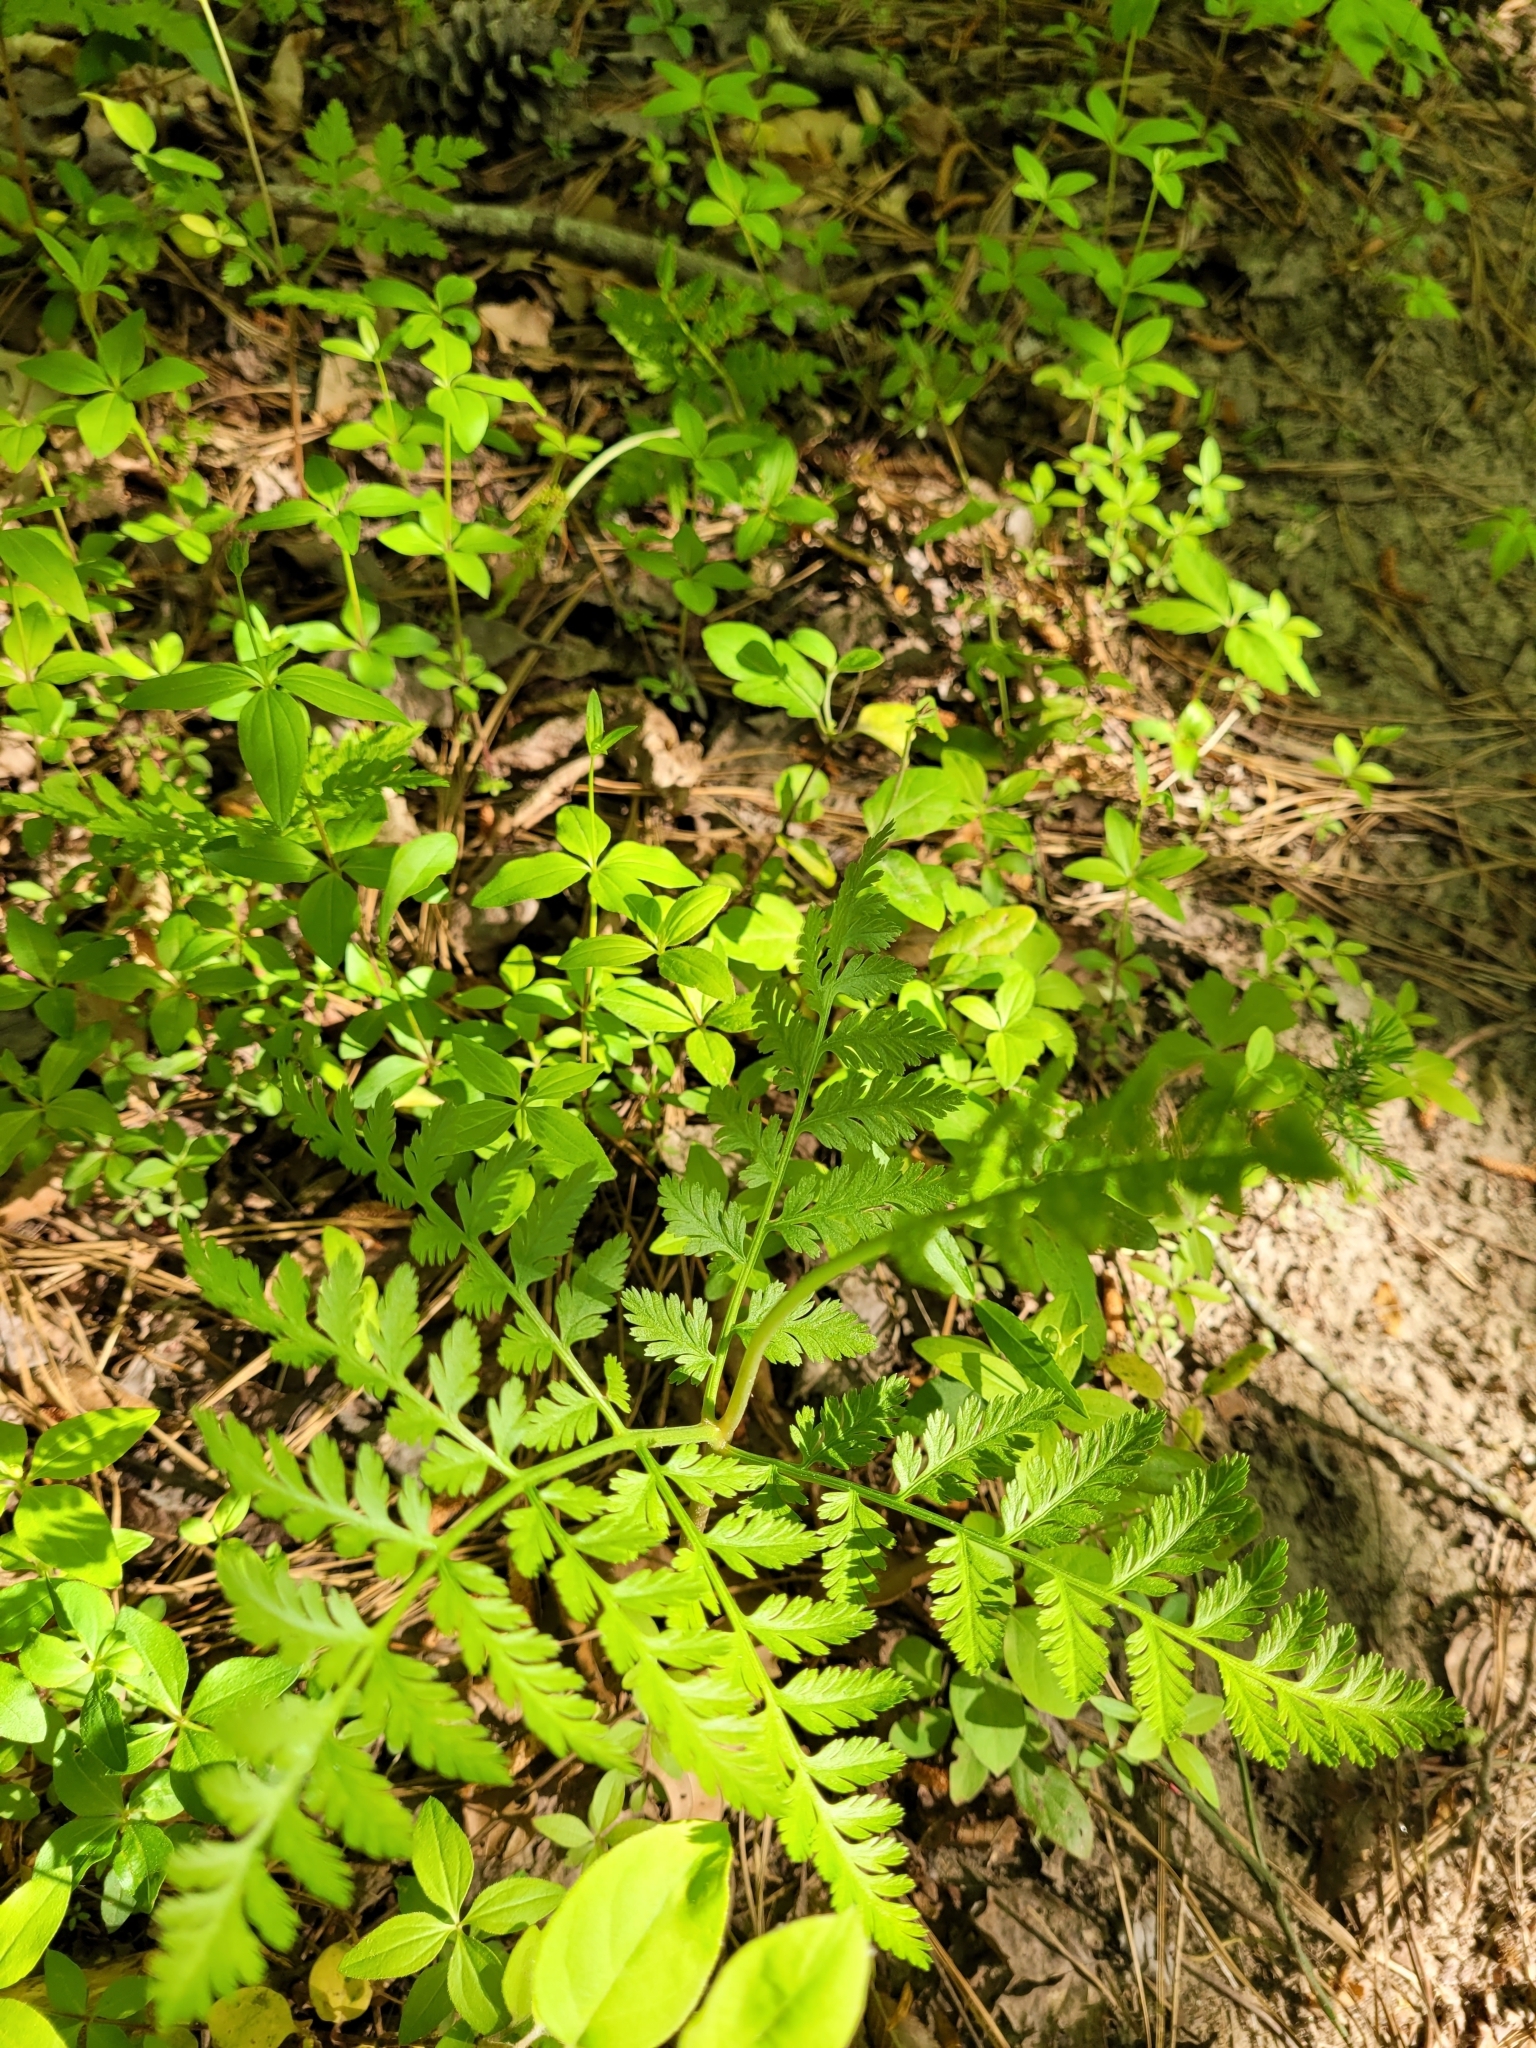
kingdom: Plantae
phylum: Tracheophyta
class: Polypodiopsida
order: Ophioglossales
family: Ophioglossaceae
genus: Botrypus
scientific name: Botrypus virginianus
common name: Common grapefern
